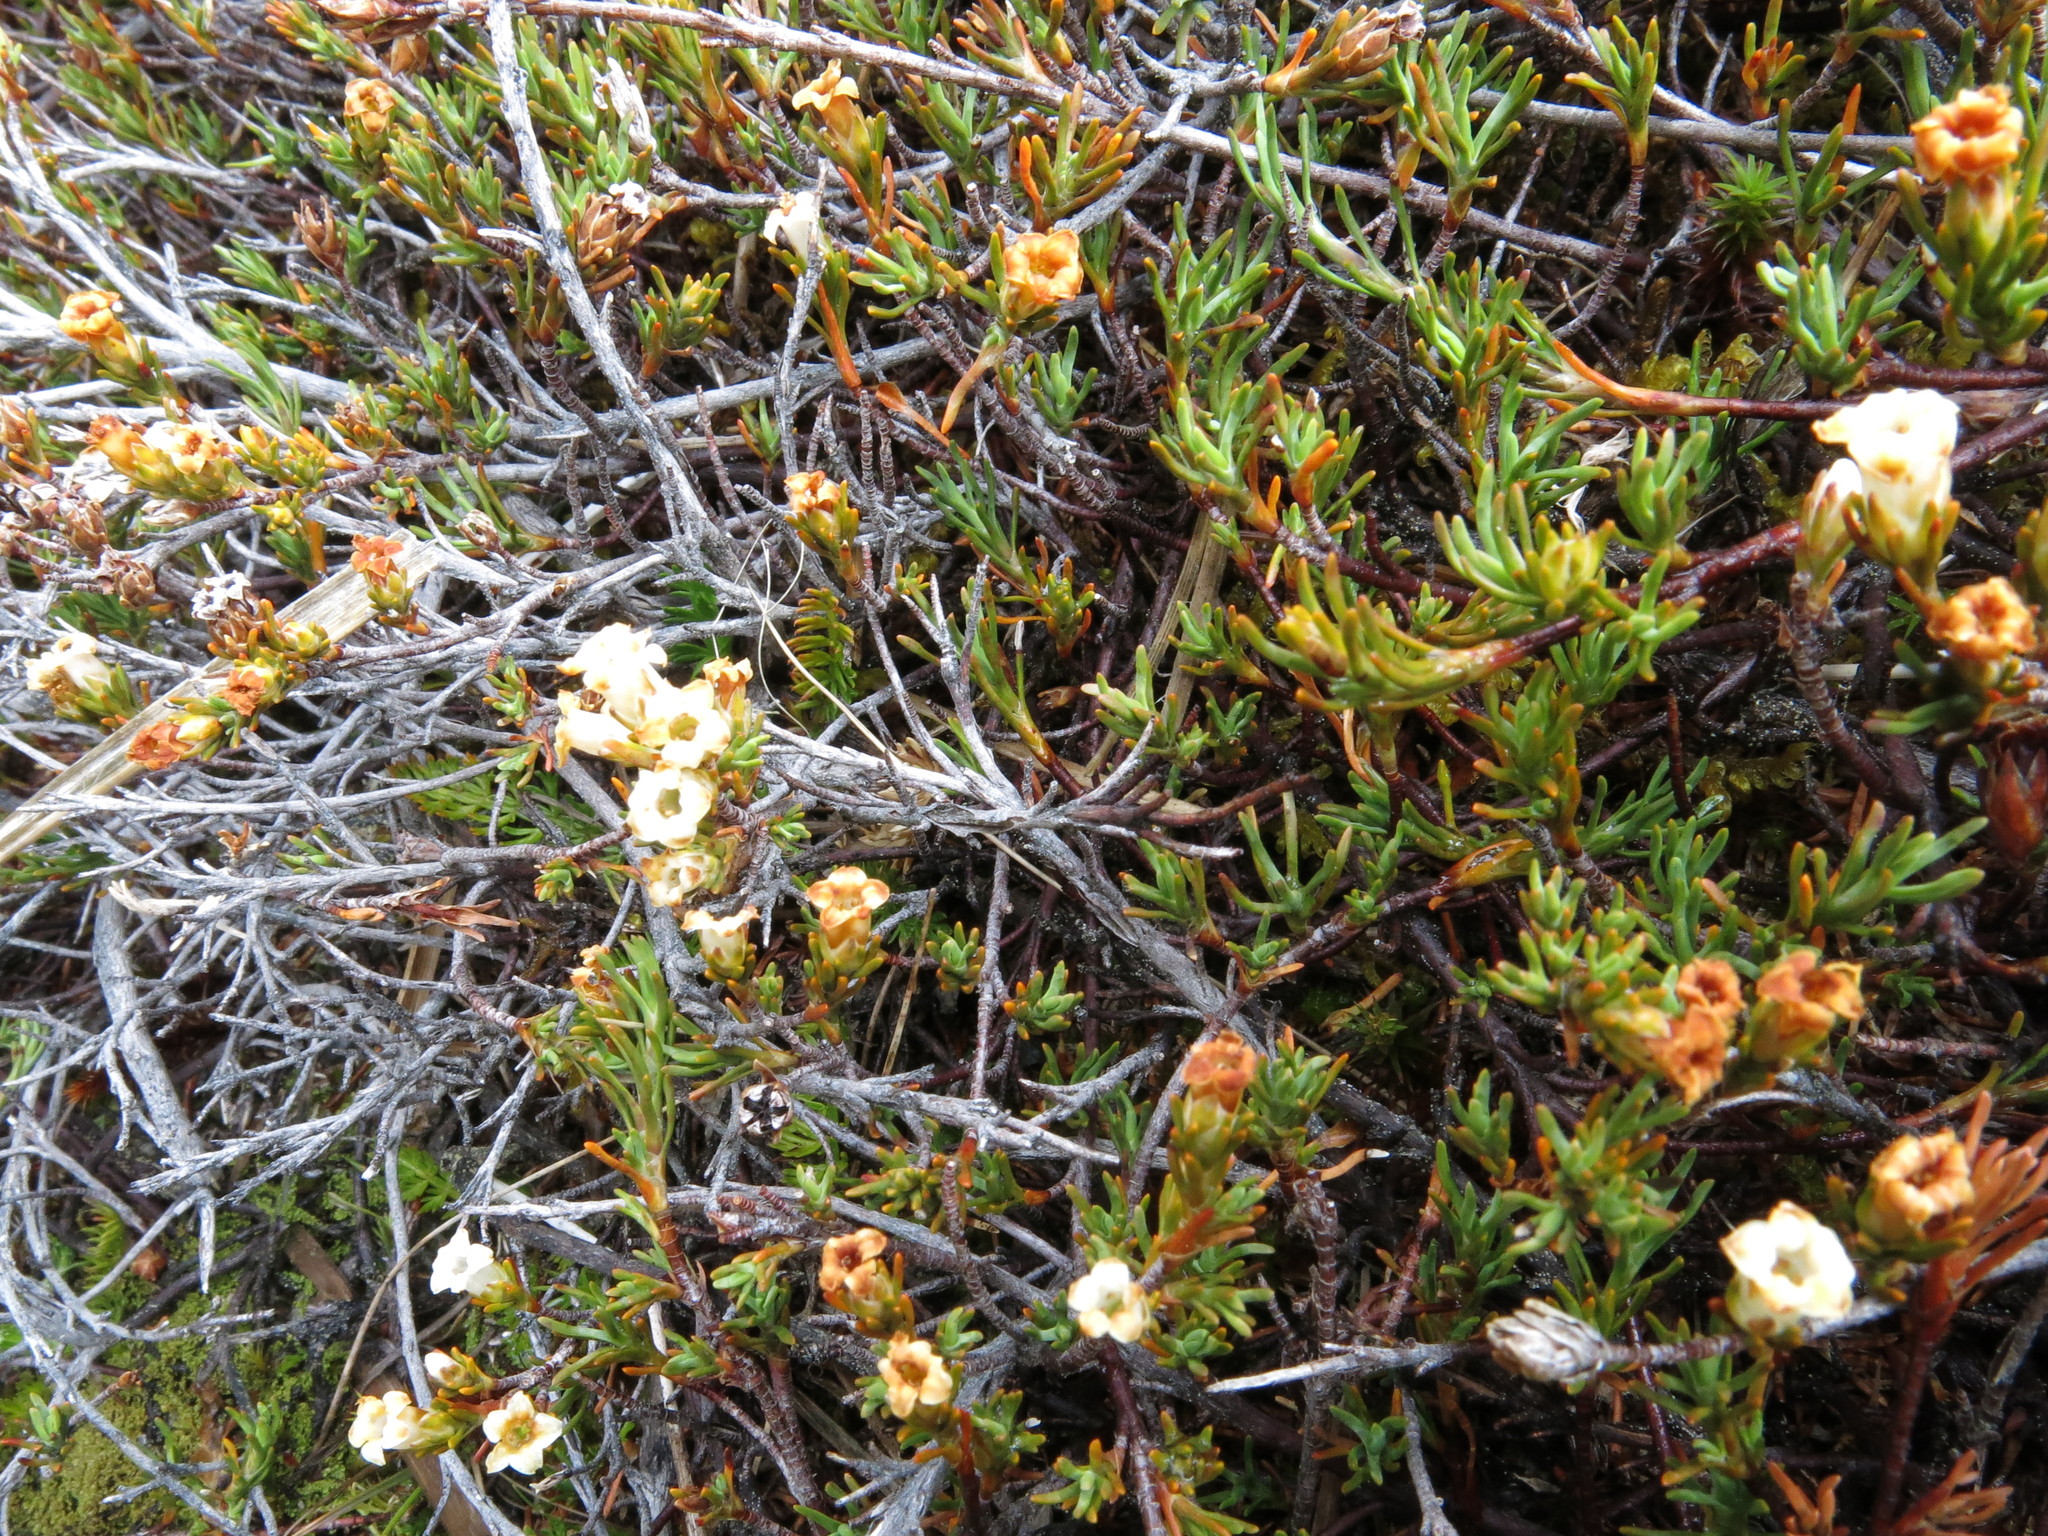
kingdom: Plantae
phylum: Tracheophyta
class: Magnoliopsida
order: Ericales
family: Ericaceae
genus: Dracophyllum
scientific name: Dracophyllum pronum
